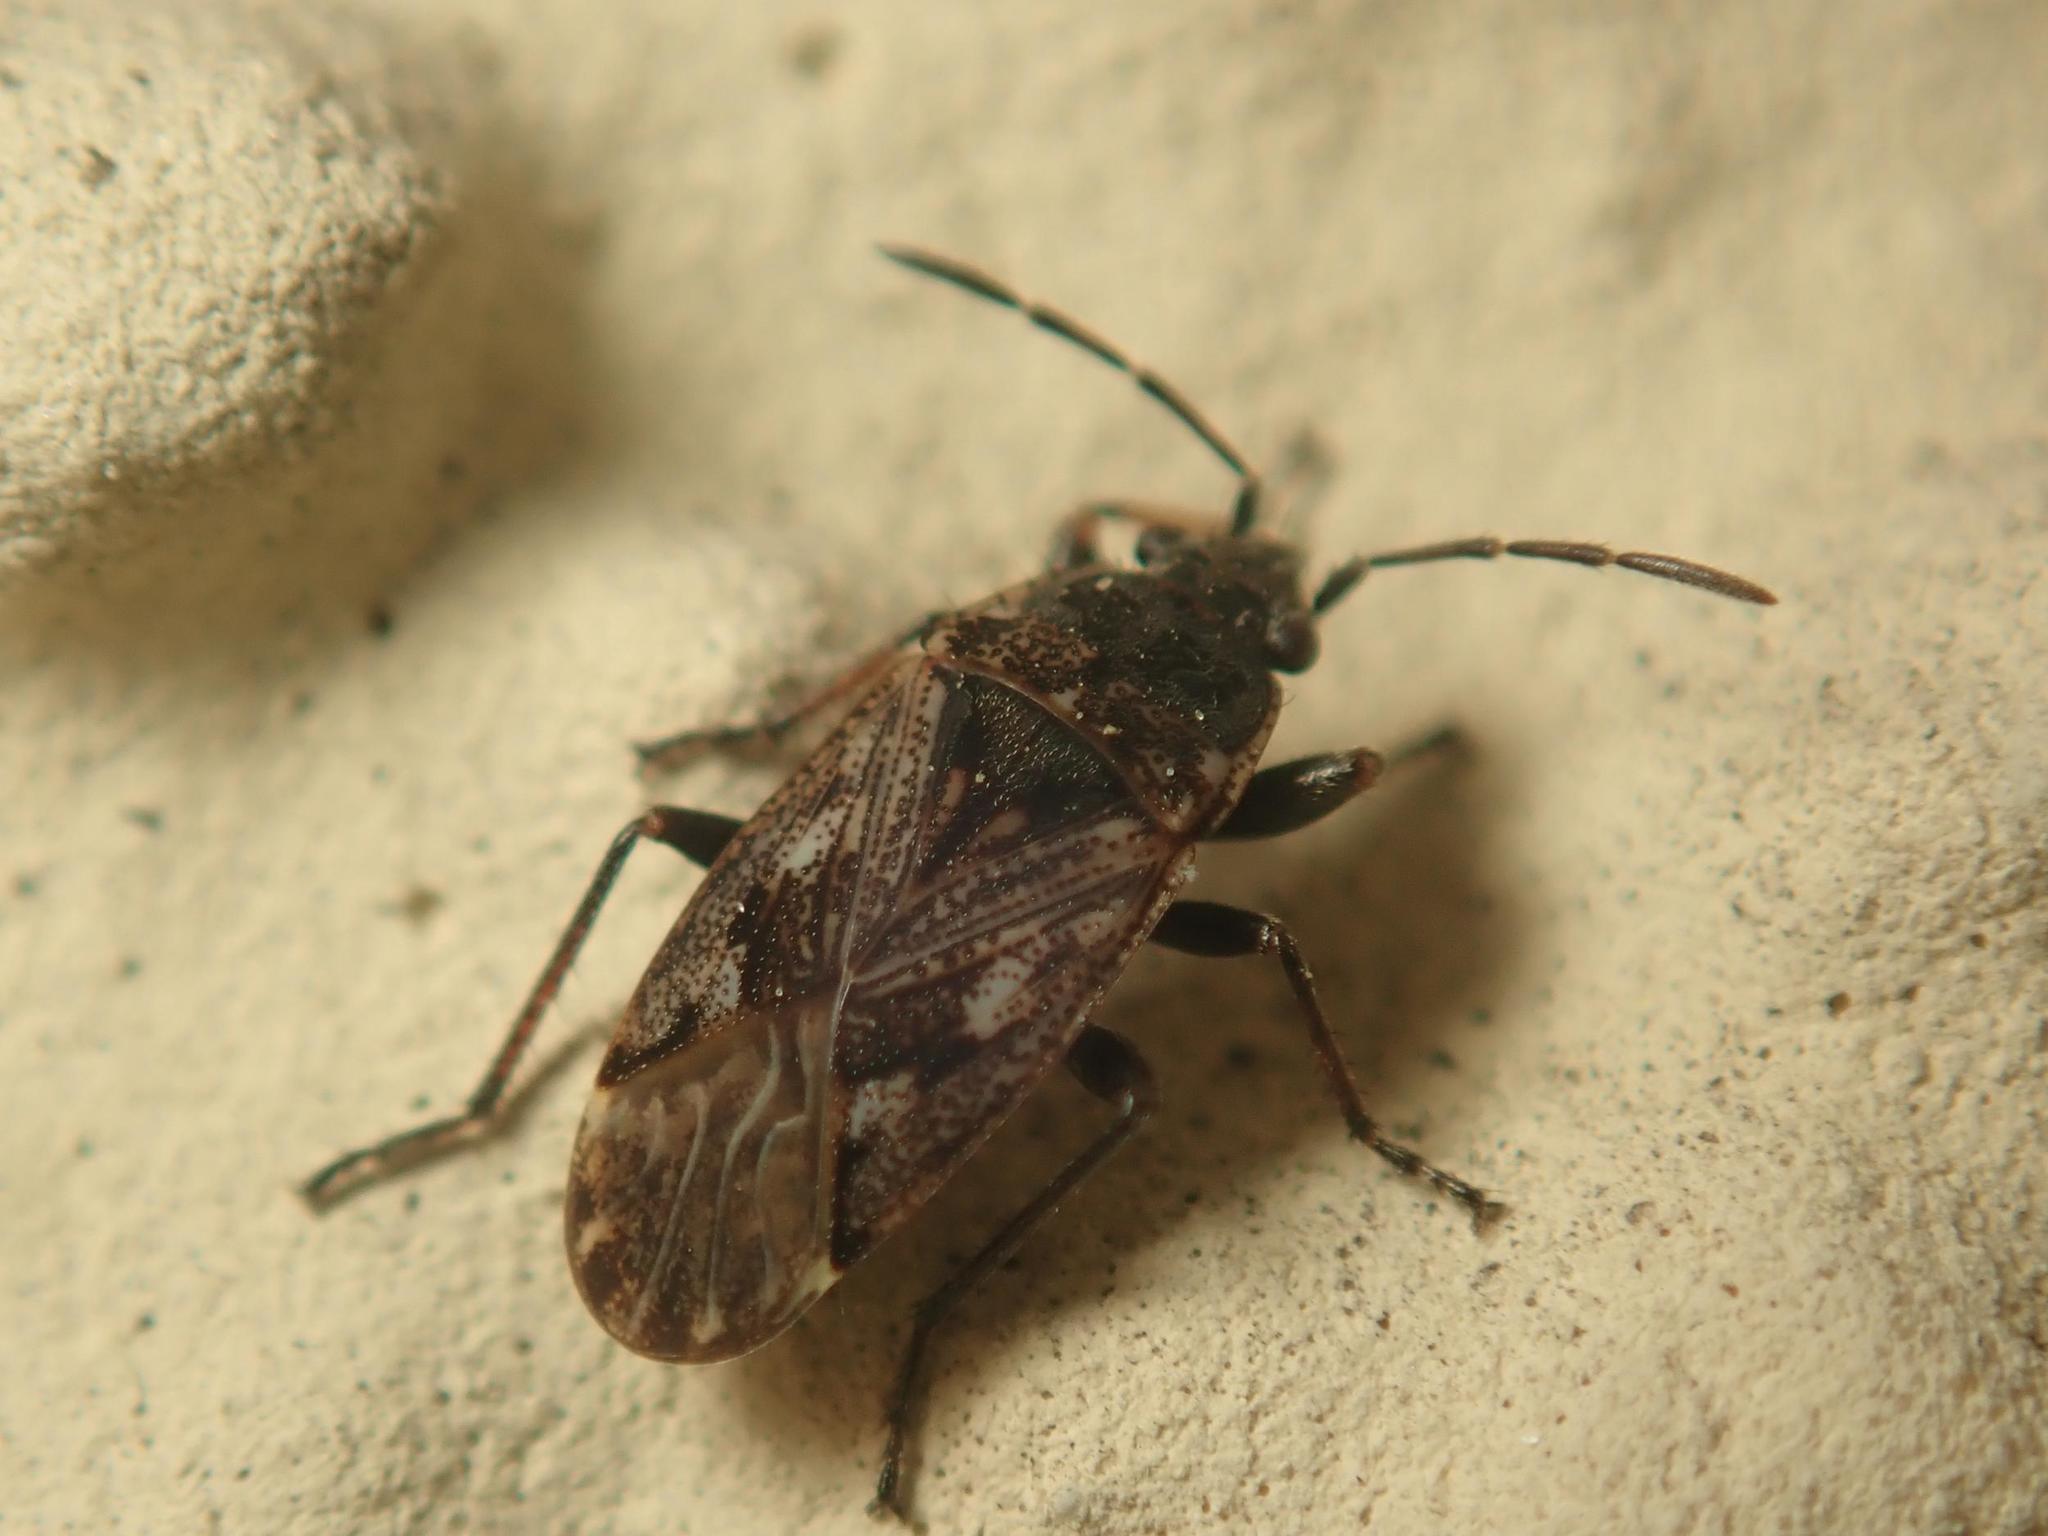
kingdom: Animalia
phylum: Arthropoda
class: Insecta
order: Hemiptera
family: Rhyparochromidae
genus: Sphragisticus
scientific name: Sphragisticus nebulosus
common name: Dirt-colored seed bug
